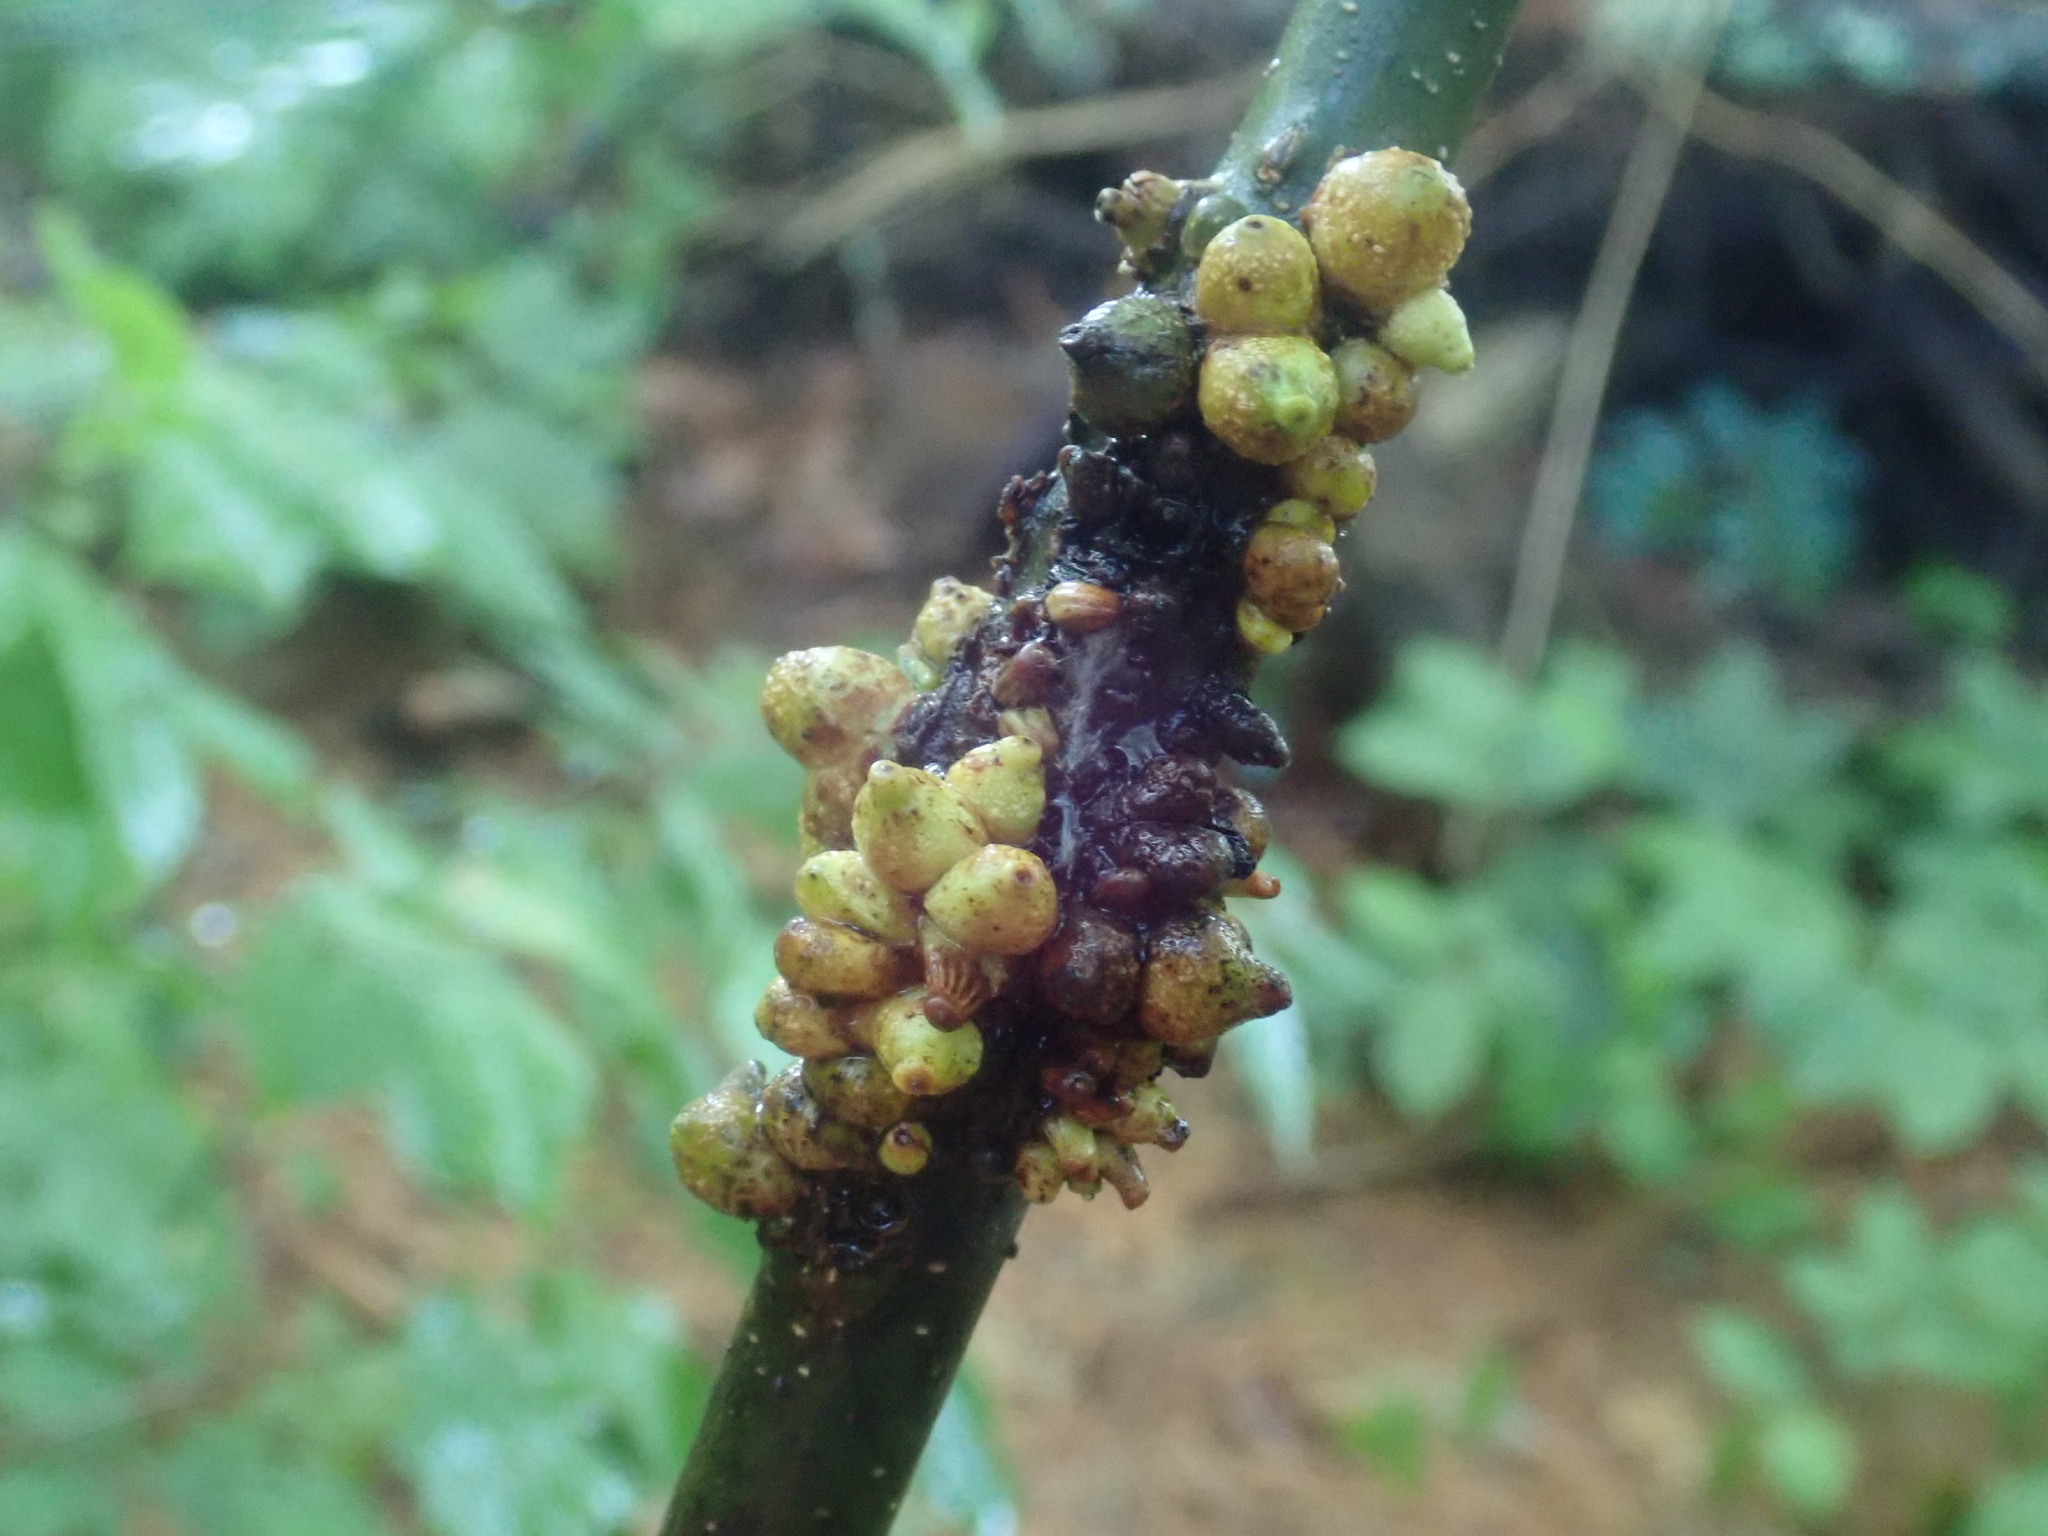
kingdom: Animalia
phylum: Arthropoda
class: Insecta
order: Hymenoptera
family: Cynipidae
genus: Synergus
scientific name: Synergus lignicola
